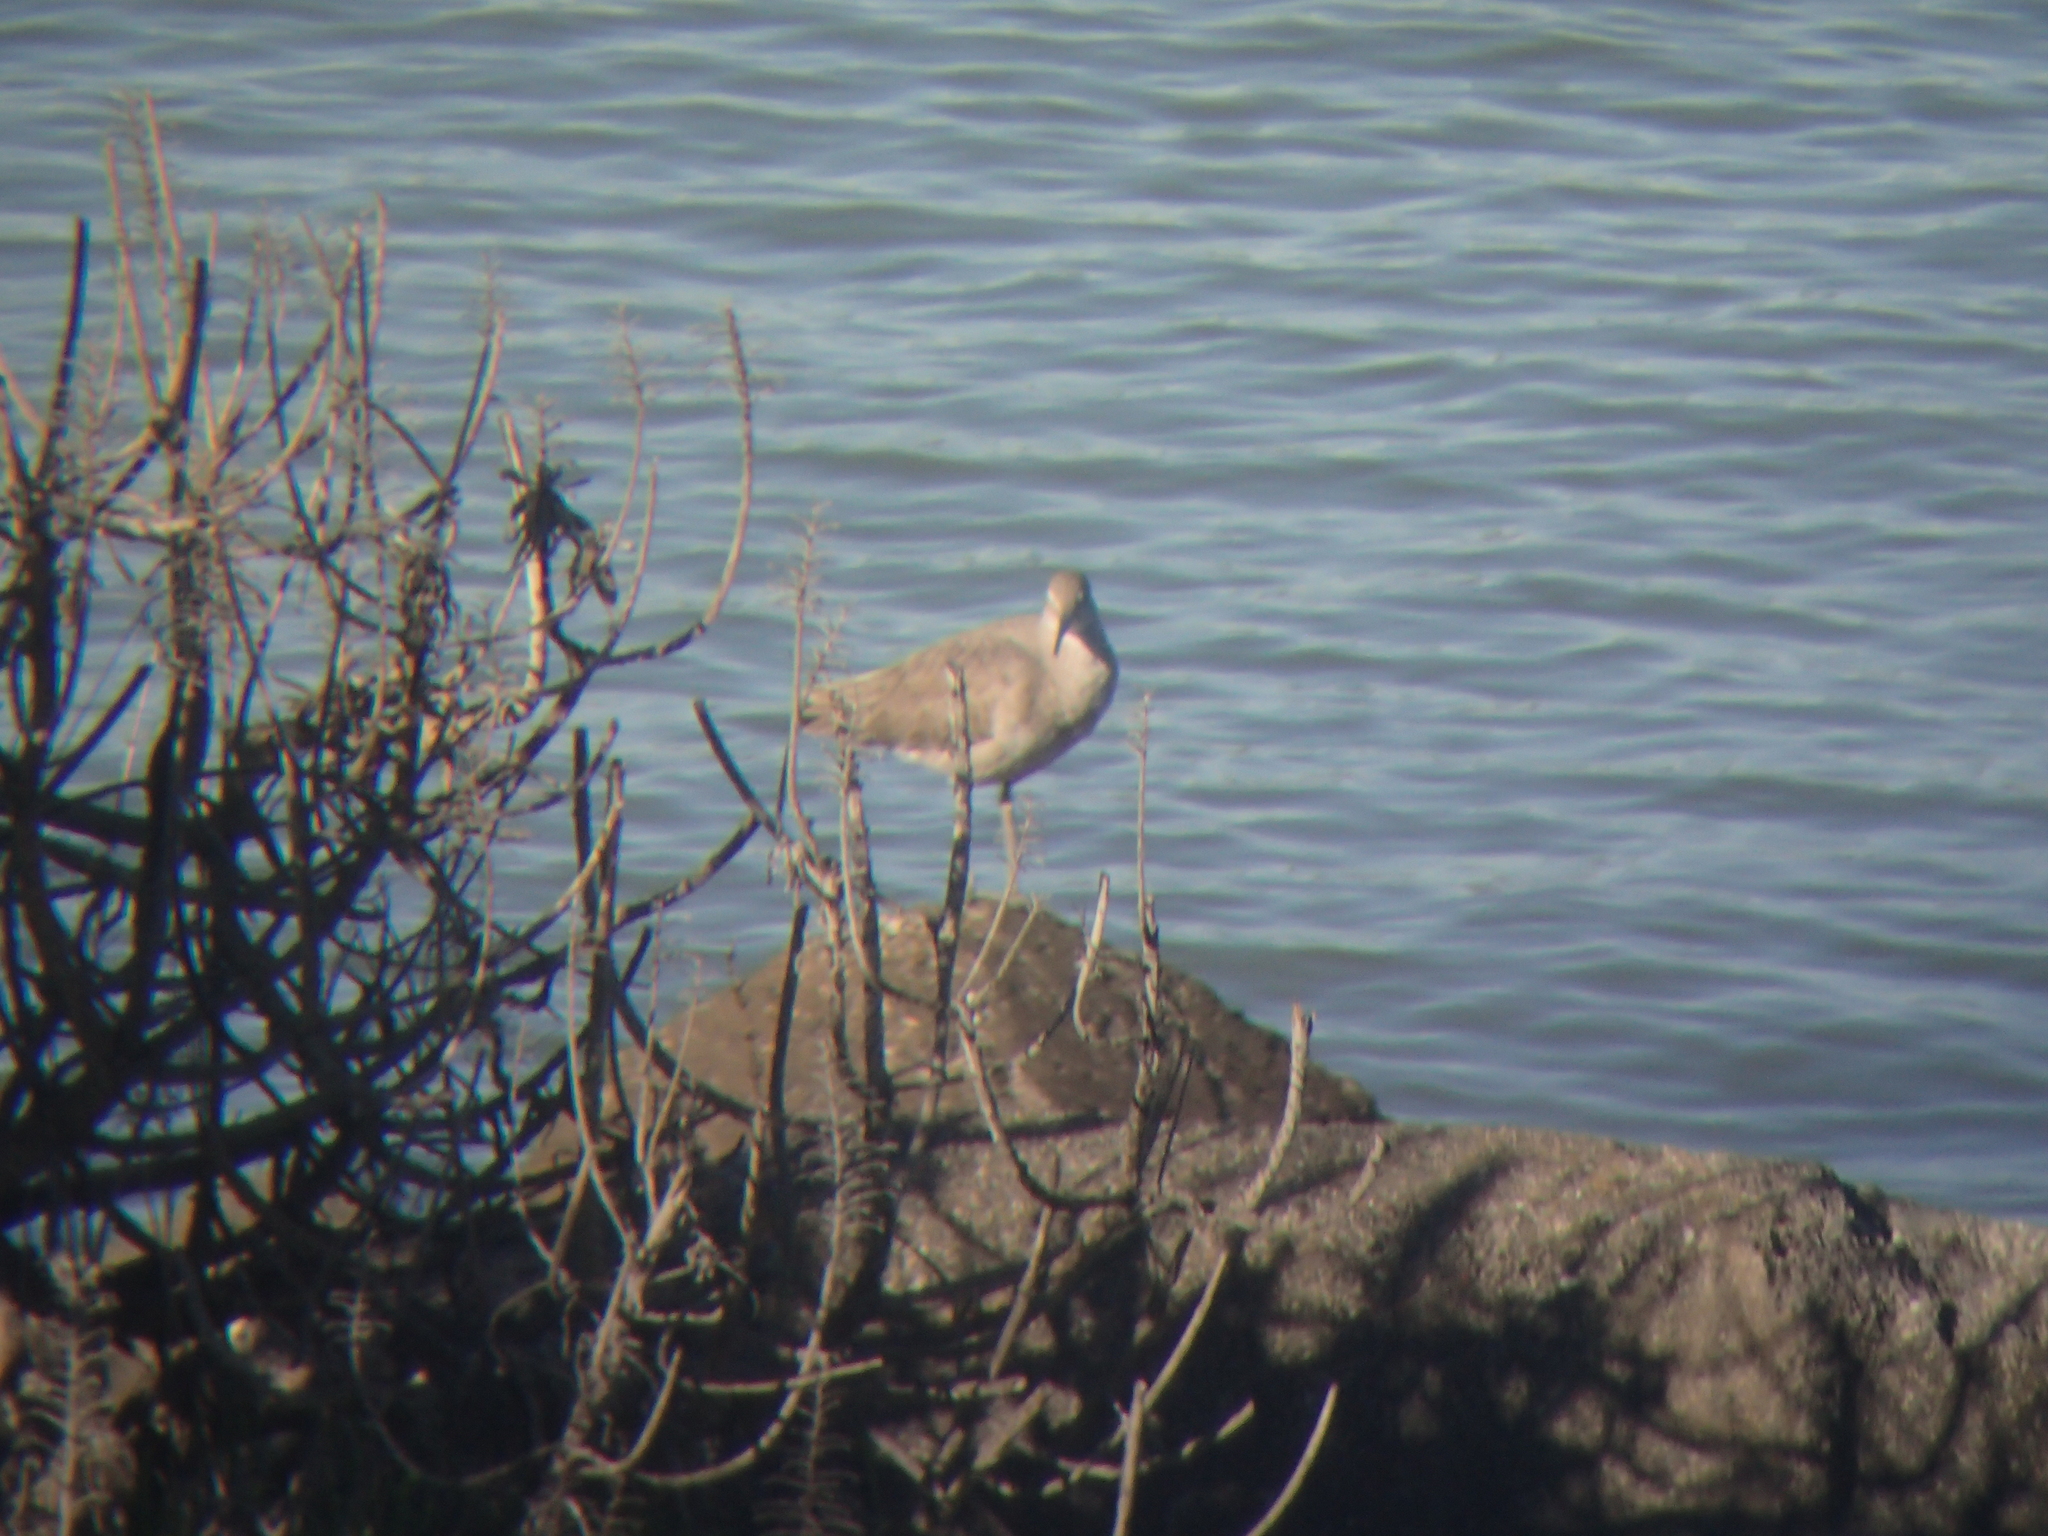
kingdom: Animalia
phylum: Chordata
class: Aves
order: Charadriiformes
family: Scolopacidae
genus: Tringa
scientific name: Tringa semipalmata
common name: Willet
